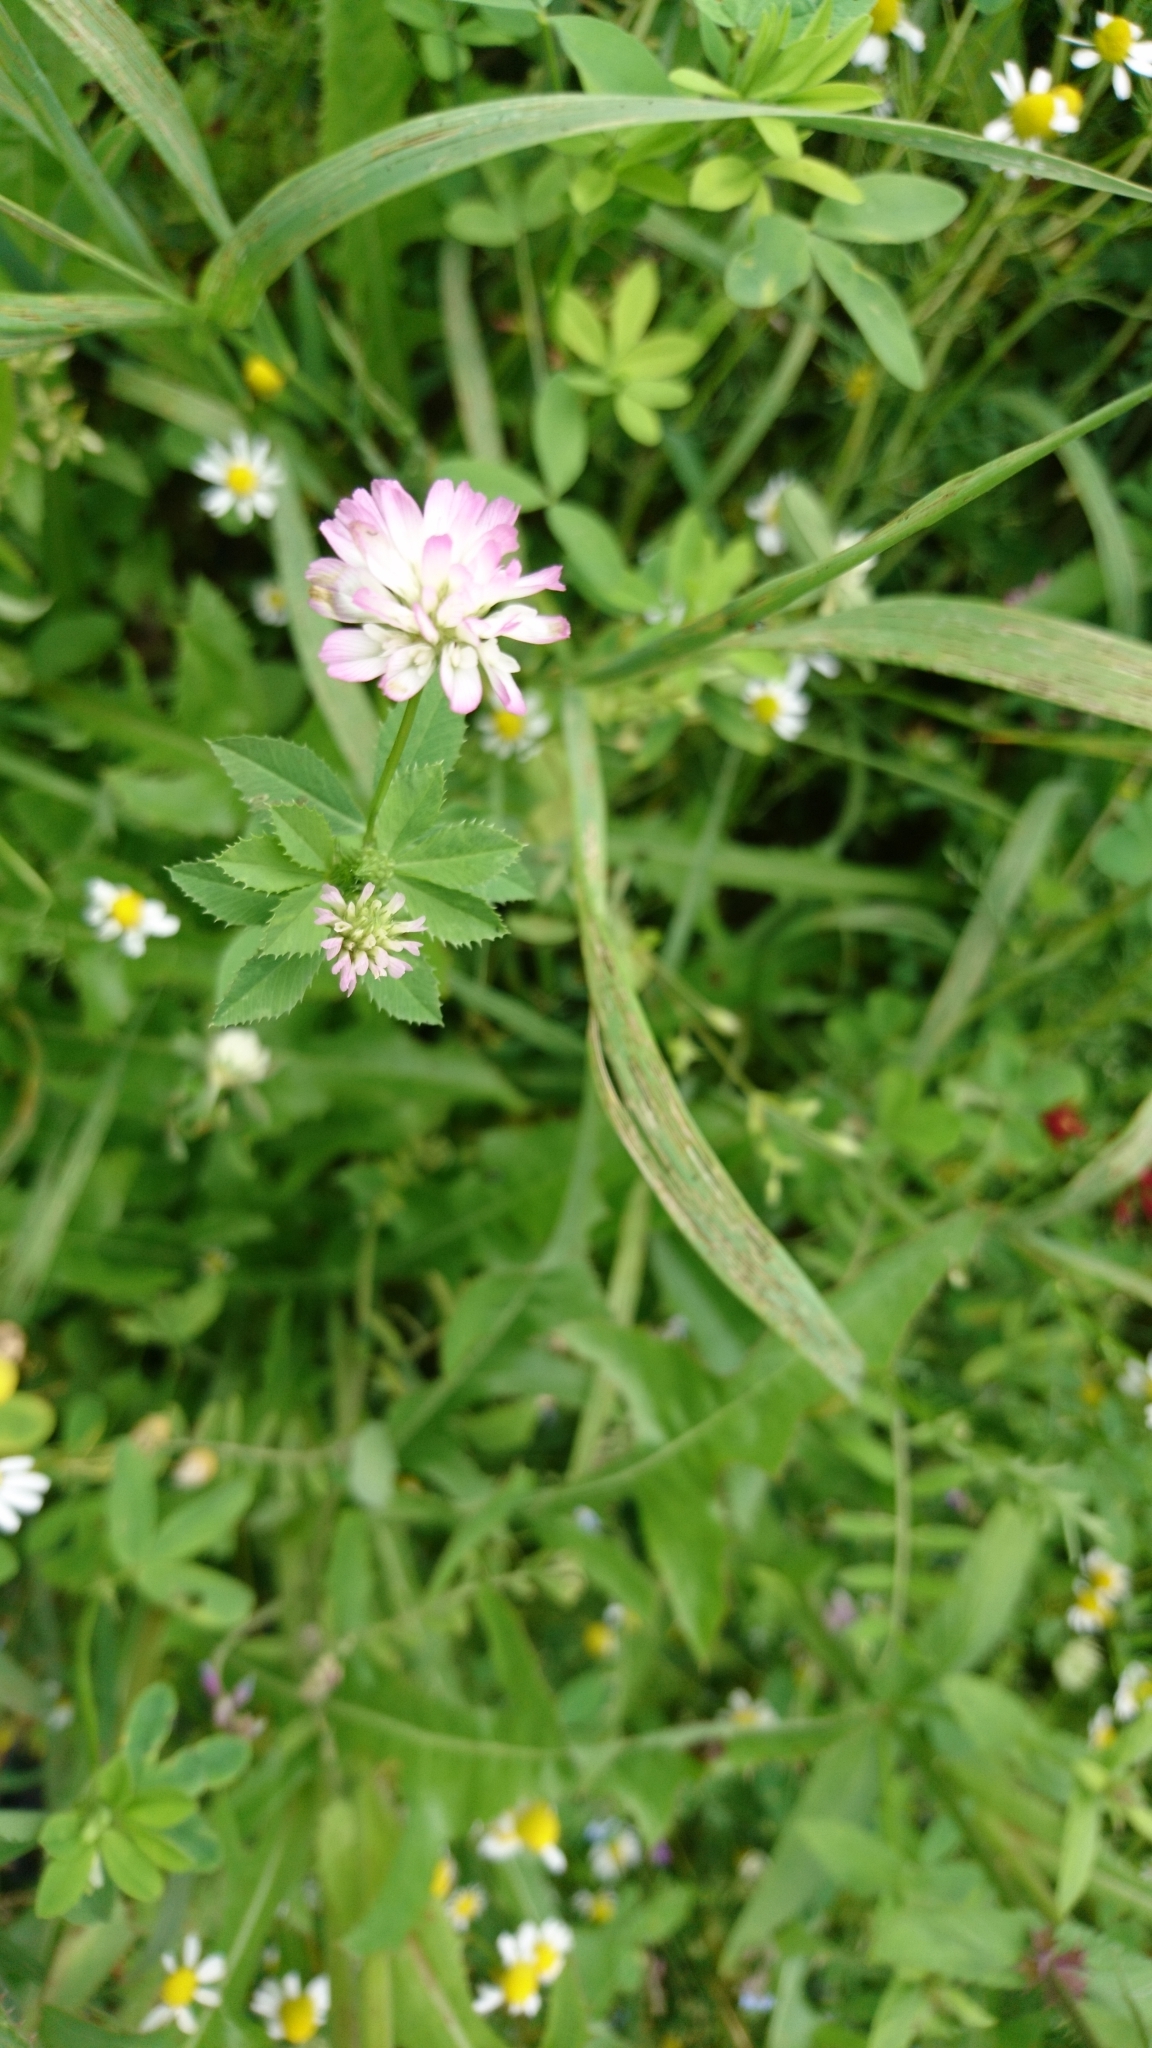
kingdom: Plantae
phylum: Tracheophyta
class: Magnoliopsida
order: Fabales
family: Fabaceae
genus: Trifolium
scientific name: Trifolium resupinatum
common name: Reversed clover
